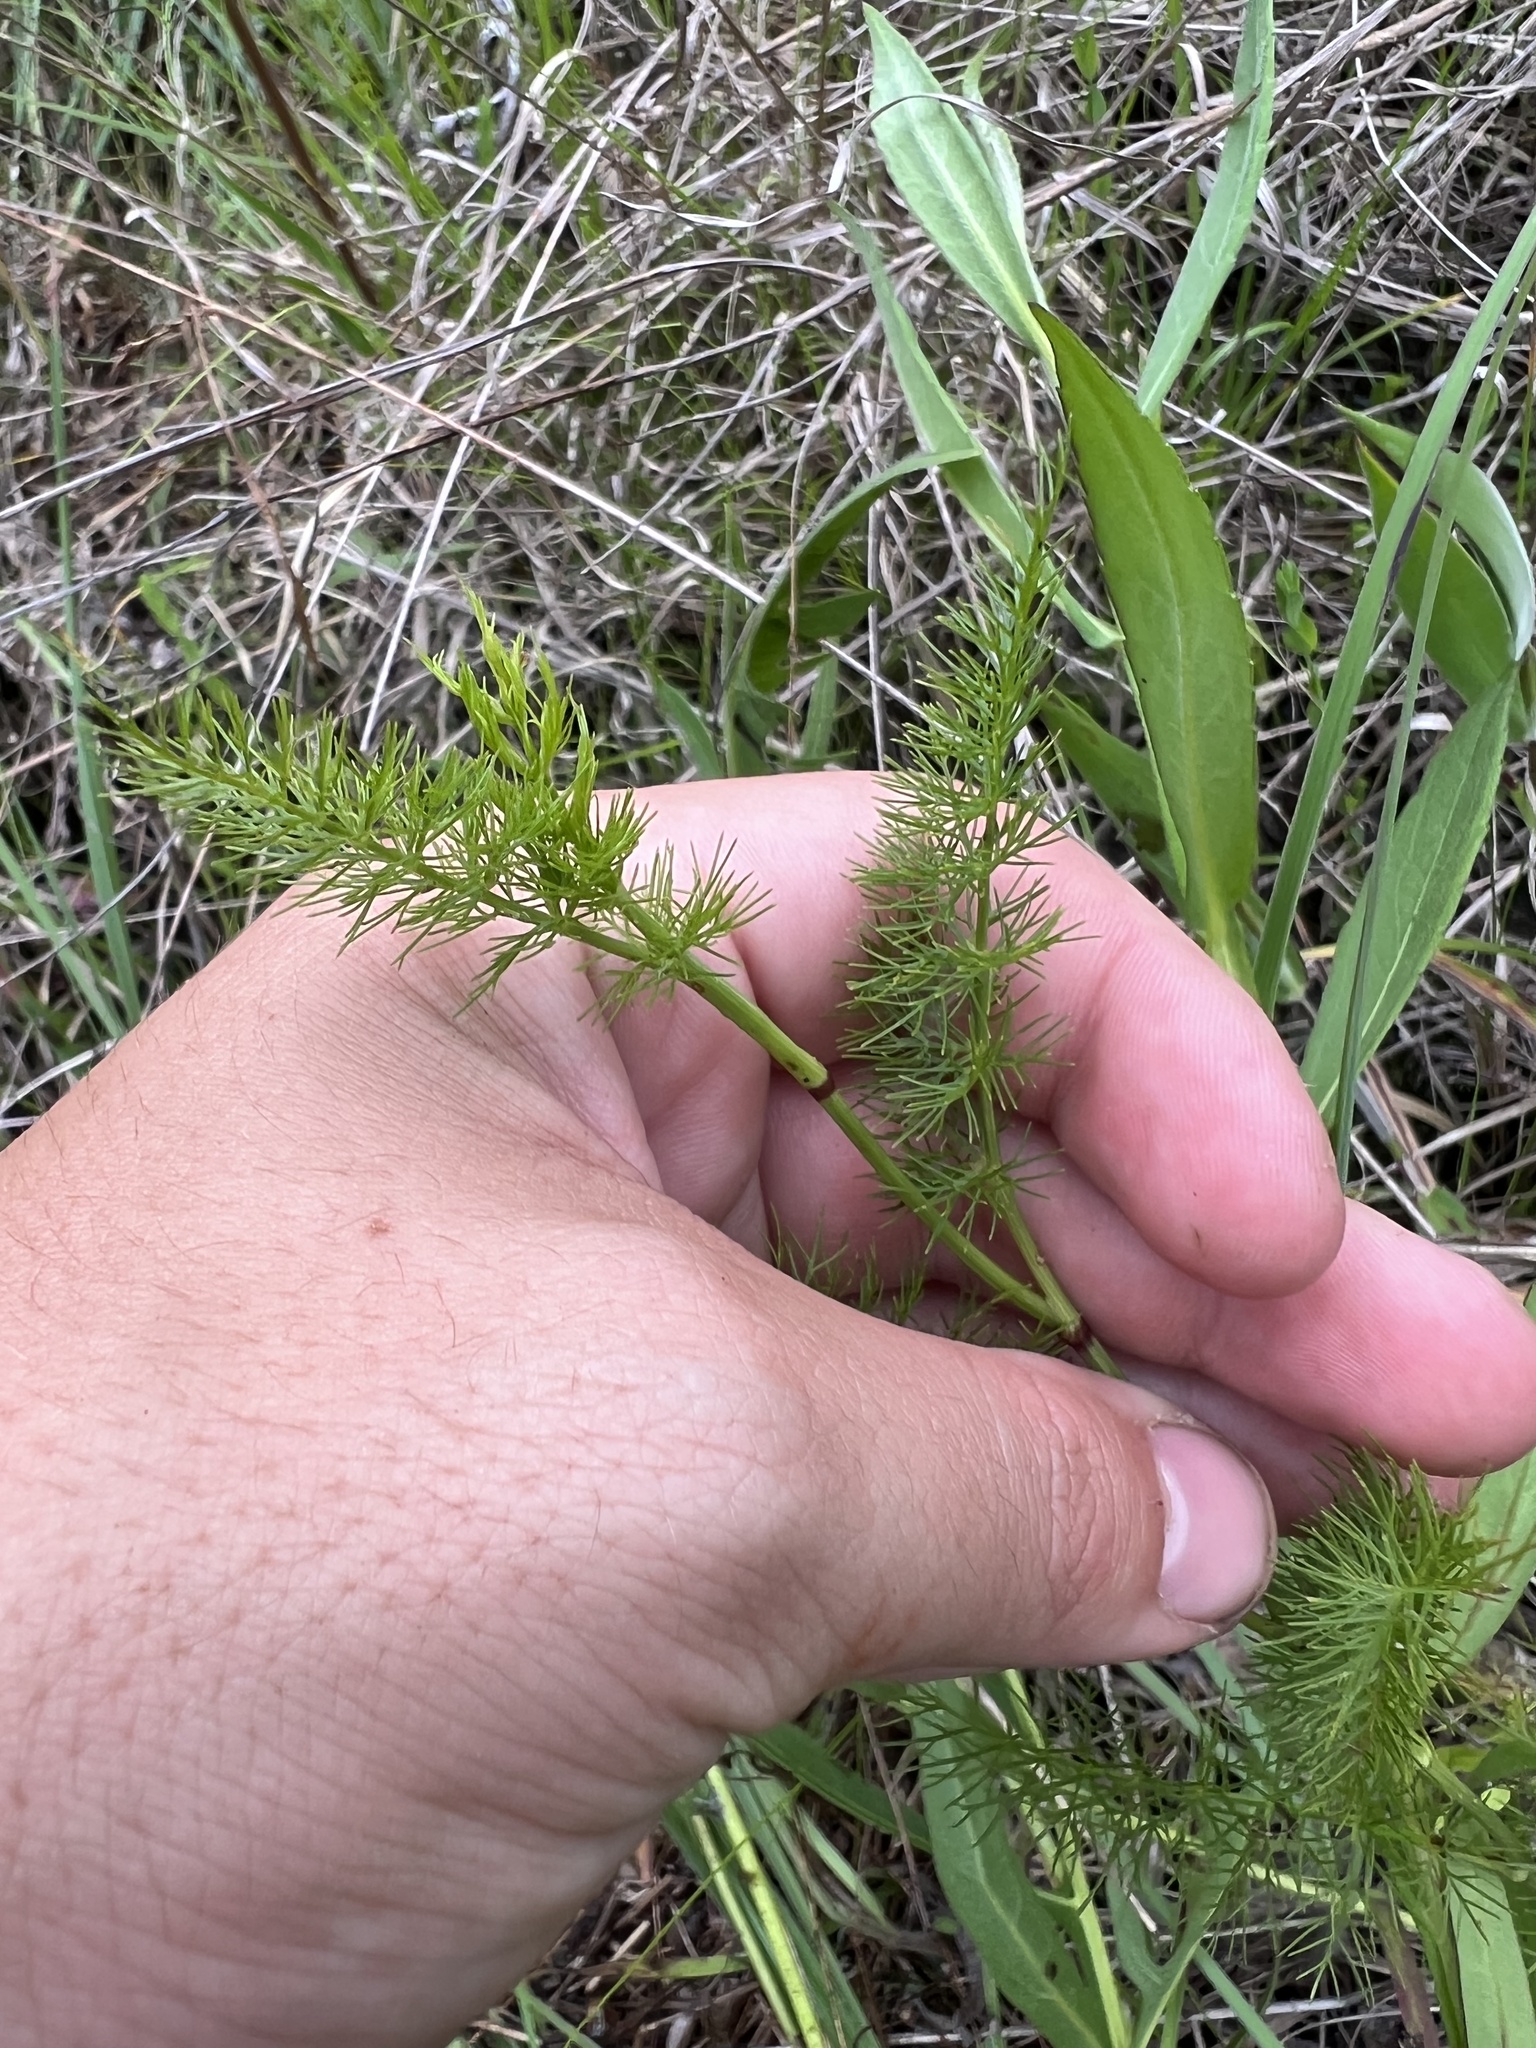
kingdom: Plantae
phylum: Tracheophyta
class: Magnoliopsida
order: Apiales
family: Apiaceae
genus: Ptilimnium
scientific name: Ptilimnium costatum
